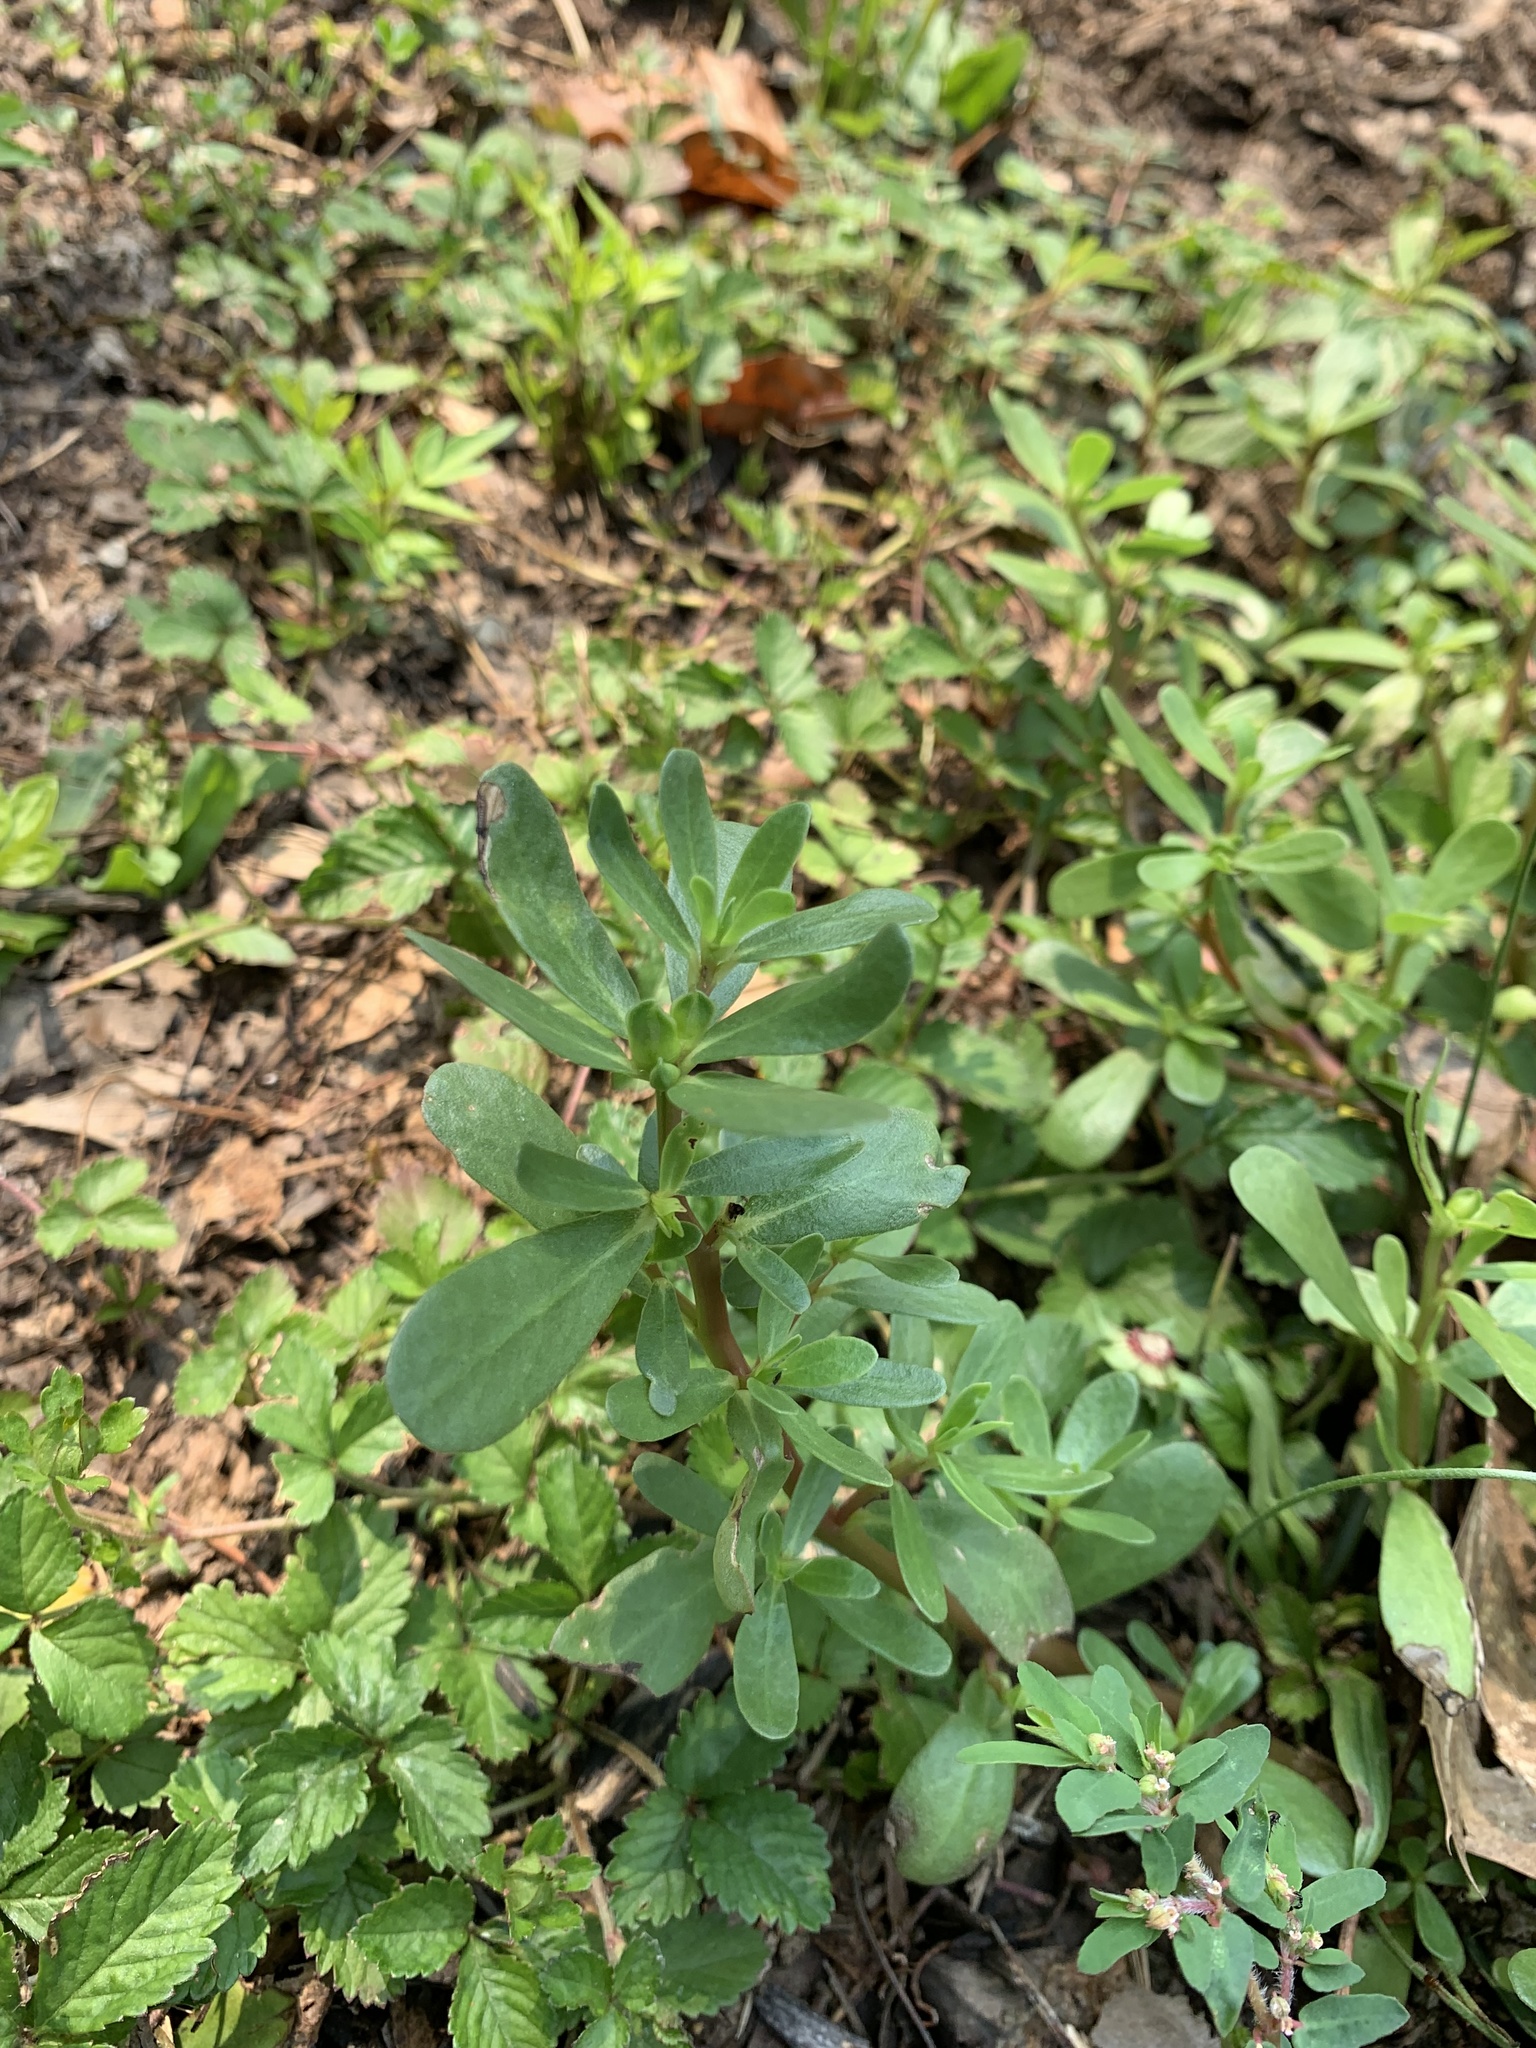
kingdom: Plantae
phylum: Tracheophyta
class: Magnoliopsida
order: Caryophyllales
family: Portulacaceae
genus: Portulaca
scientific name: Portulaca oleracea
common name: Common purslane
